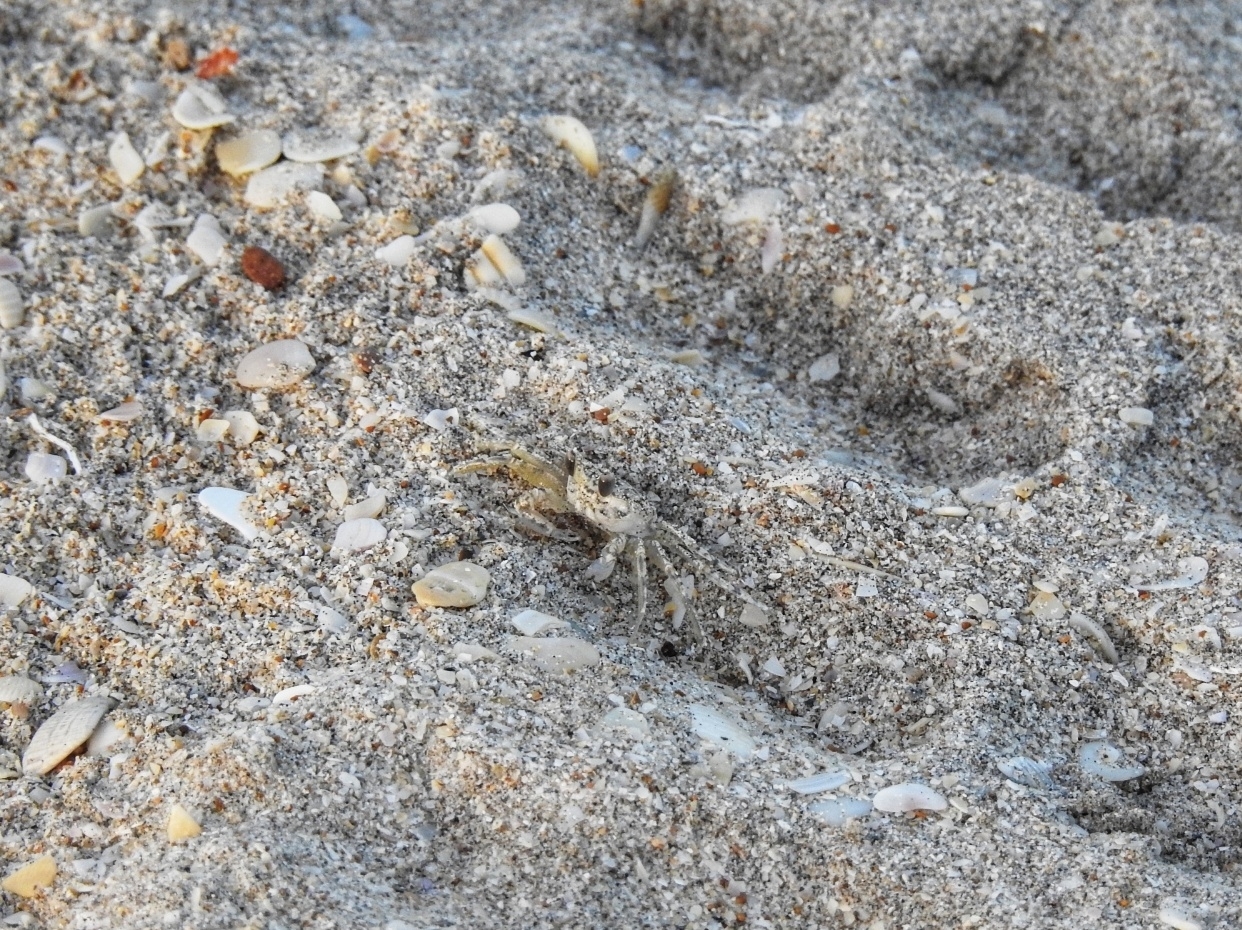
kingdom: Animalia
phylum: Arthropoda
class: Malacostraca
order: Decapoda
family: Ocypodidae
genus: Ocypode
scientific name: Ocypode quadrata
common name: Ghost crab
